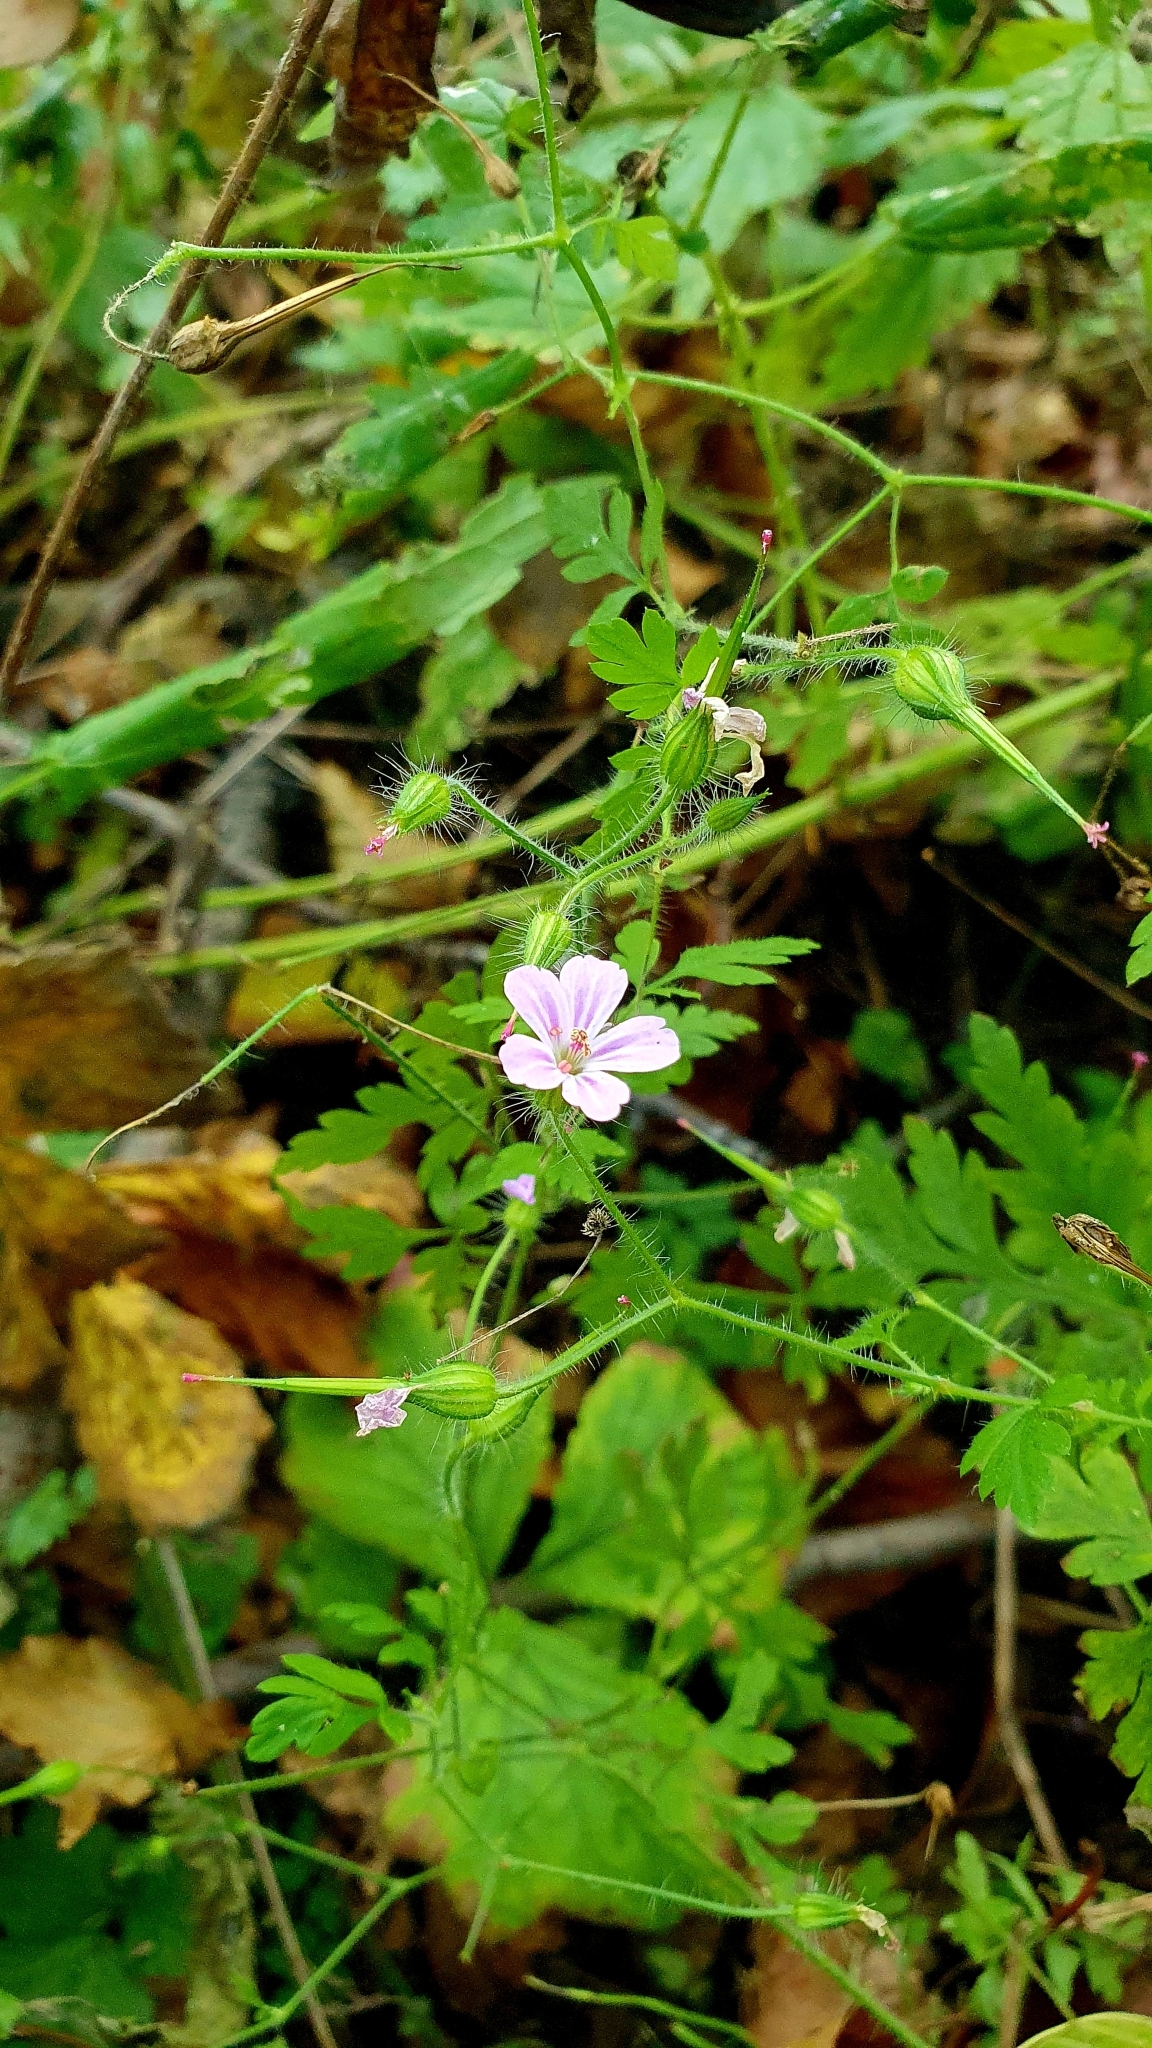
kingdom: Plantae
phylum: Tracheophyta
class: Magnoliopsida
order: Geraniales
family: Geraniaceae
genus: Geranium
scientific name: Geranium robertianum
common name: Herb-robert
